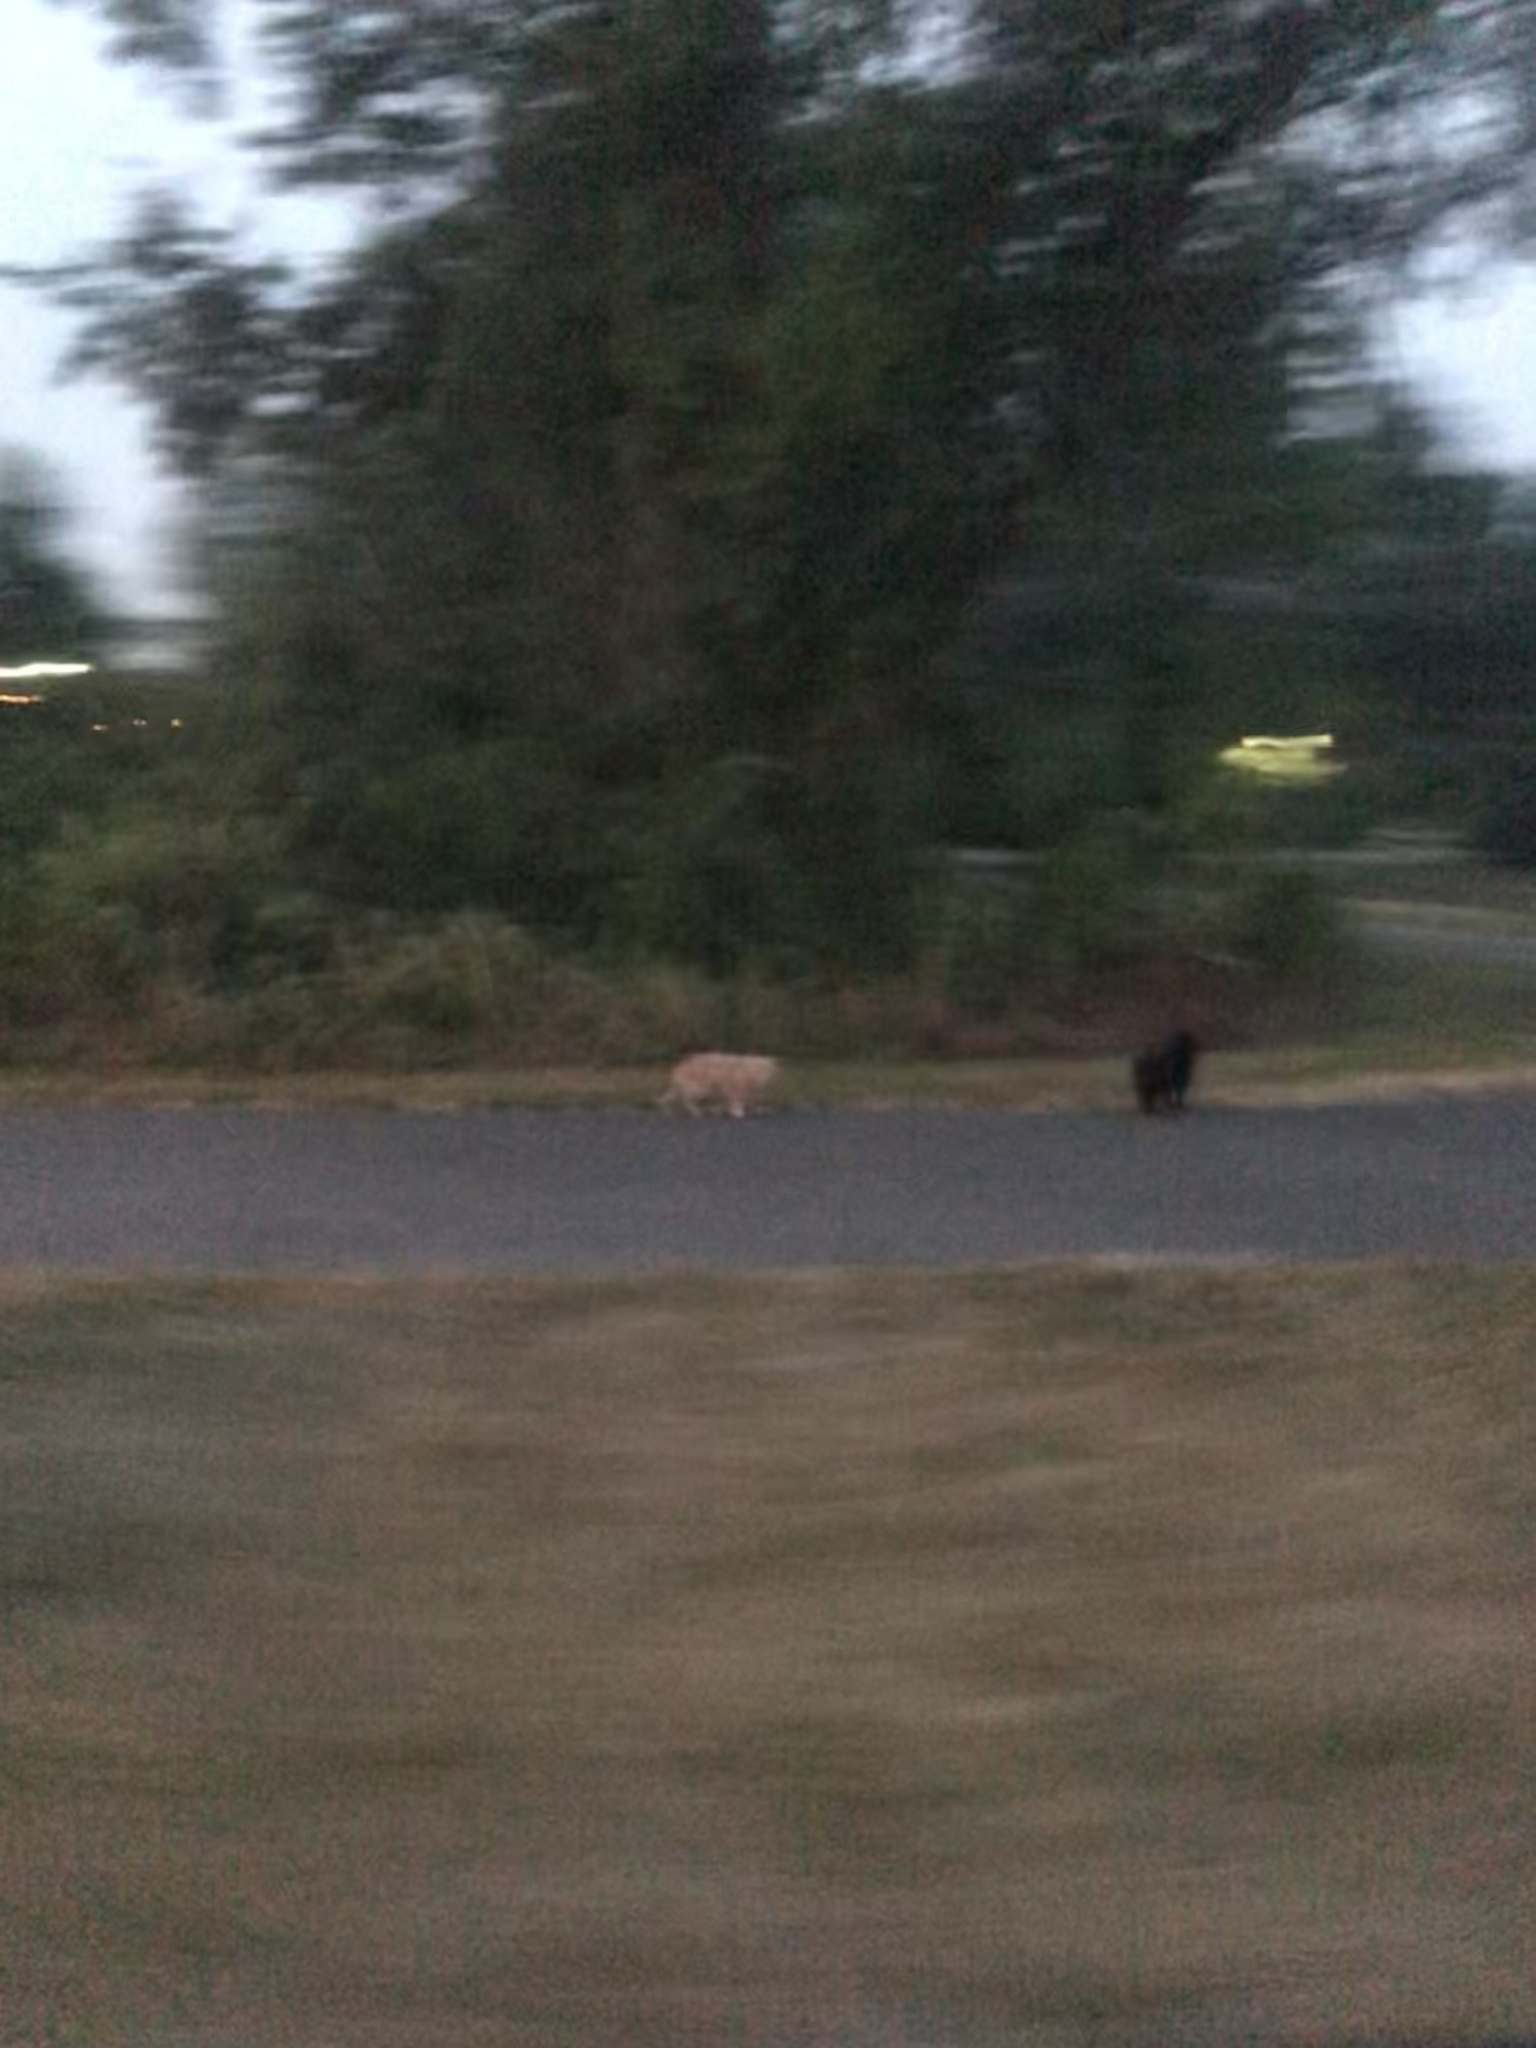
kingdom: Animalia
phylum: Chordata
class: Mammalia
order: Carnivora
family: Felidae
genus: Felis
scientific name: Felis catus
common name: Domestic cat
